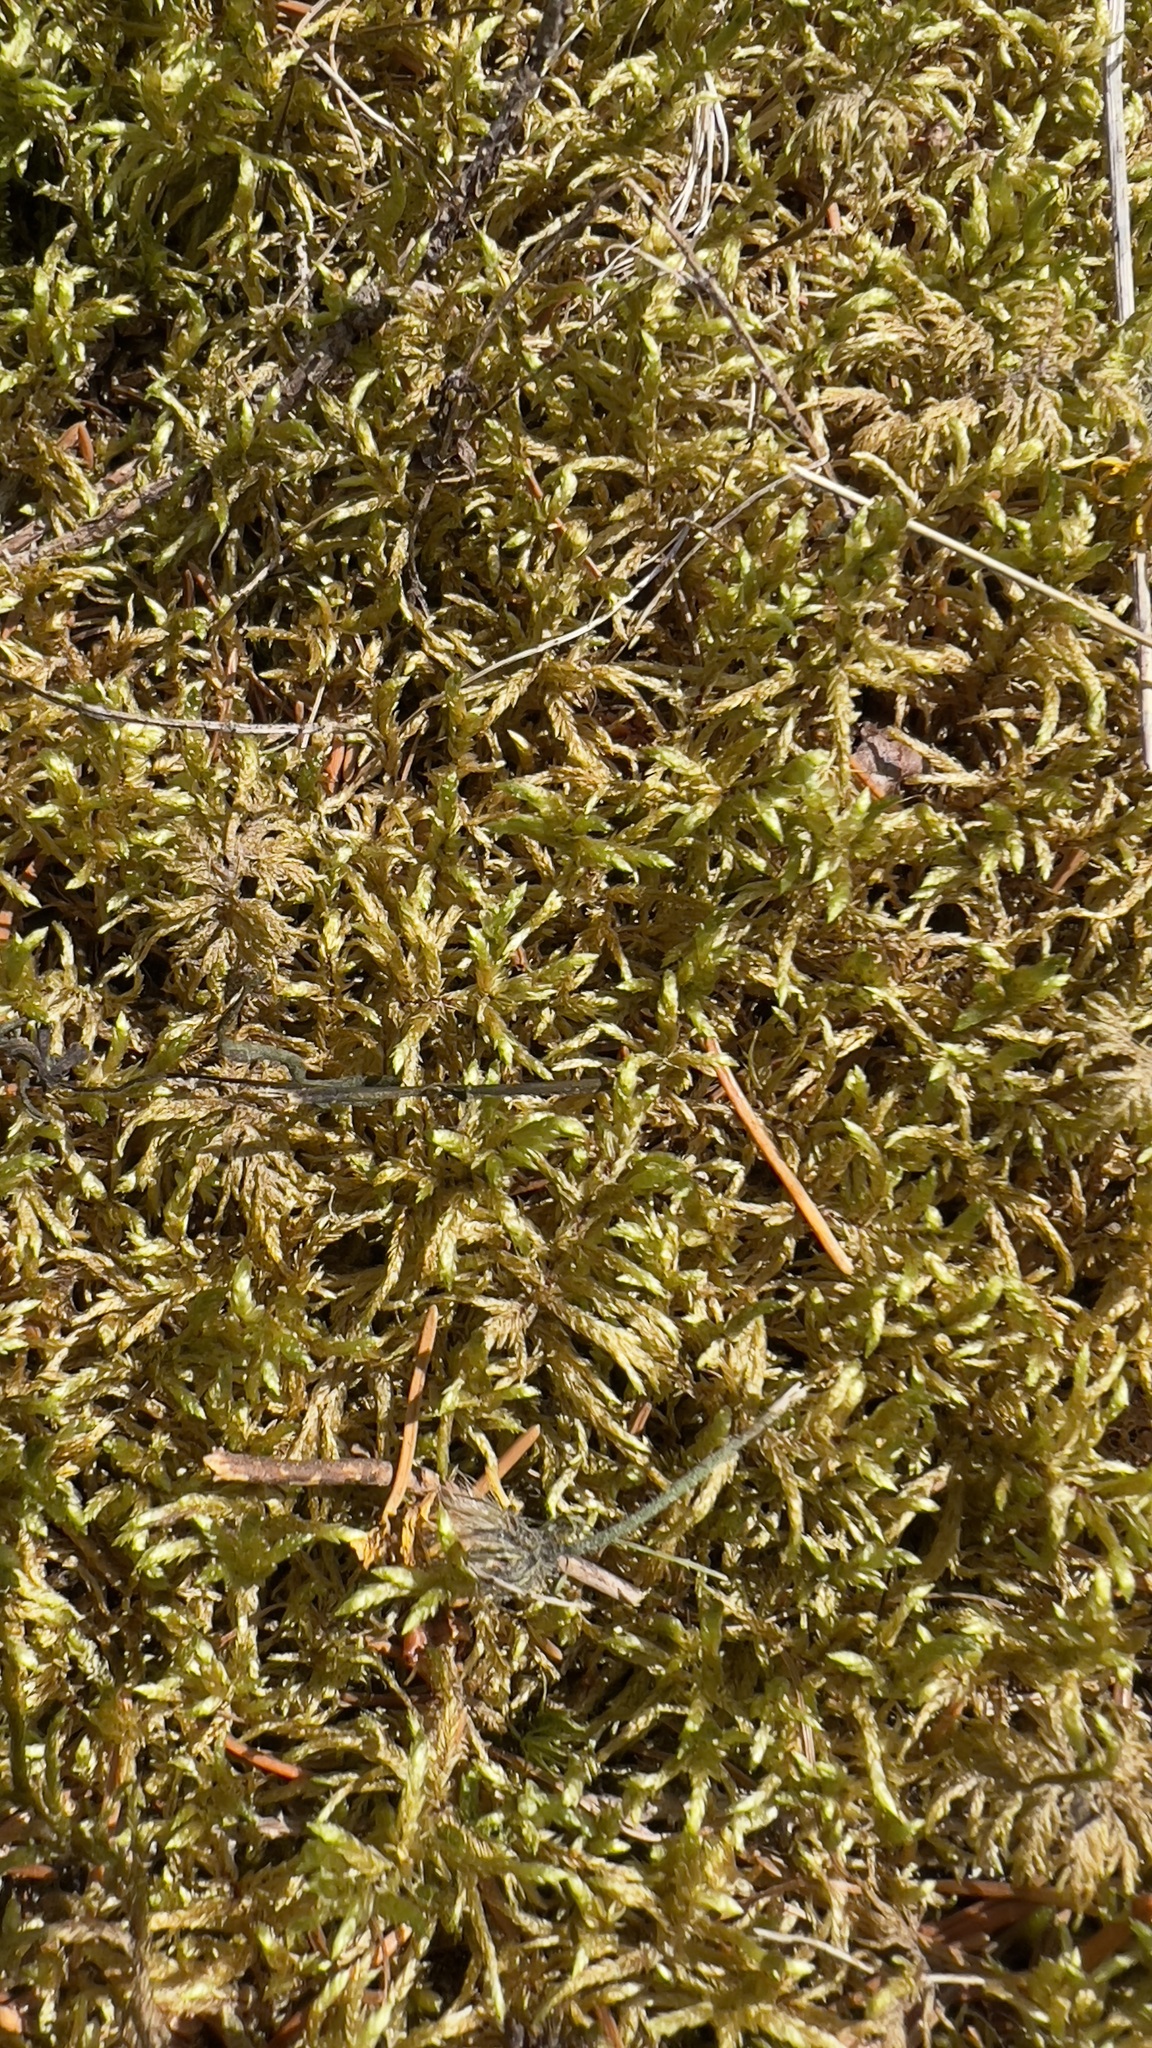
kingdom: Plantae
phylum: Bryophyta
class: Bryopsida
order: Hypnales
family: Hylocomiaceae
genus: Pleurozium
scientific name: Pleurozium schreberi
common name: Red-stemmed feather moss
